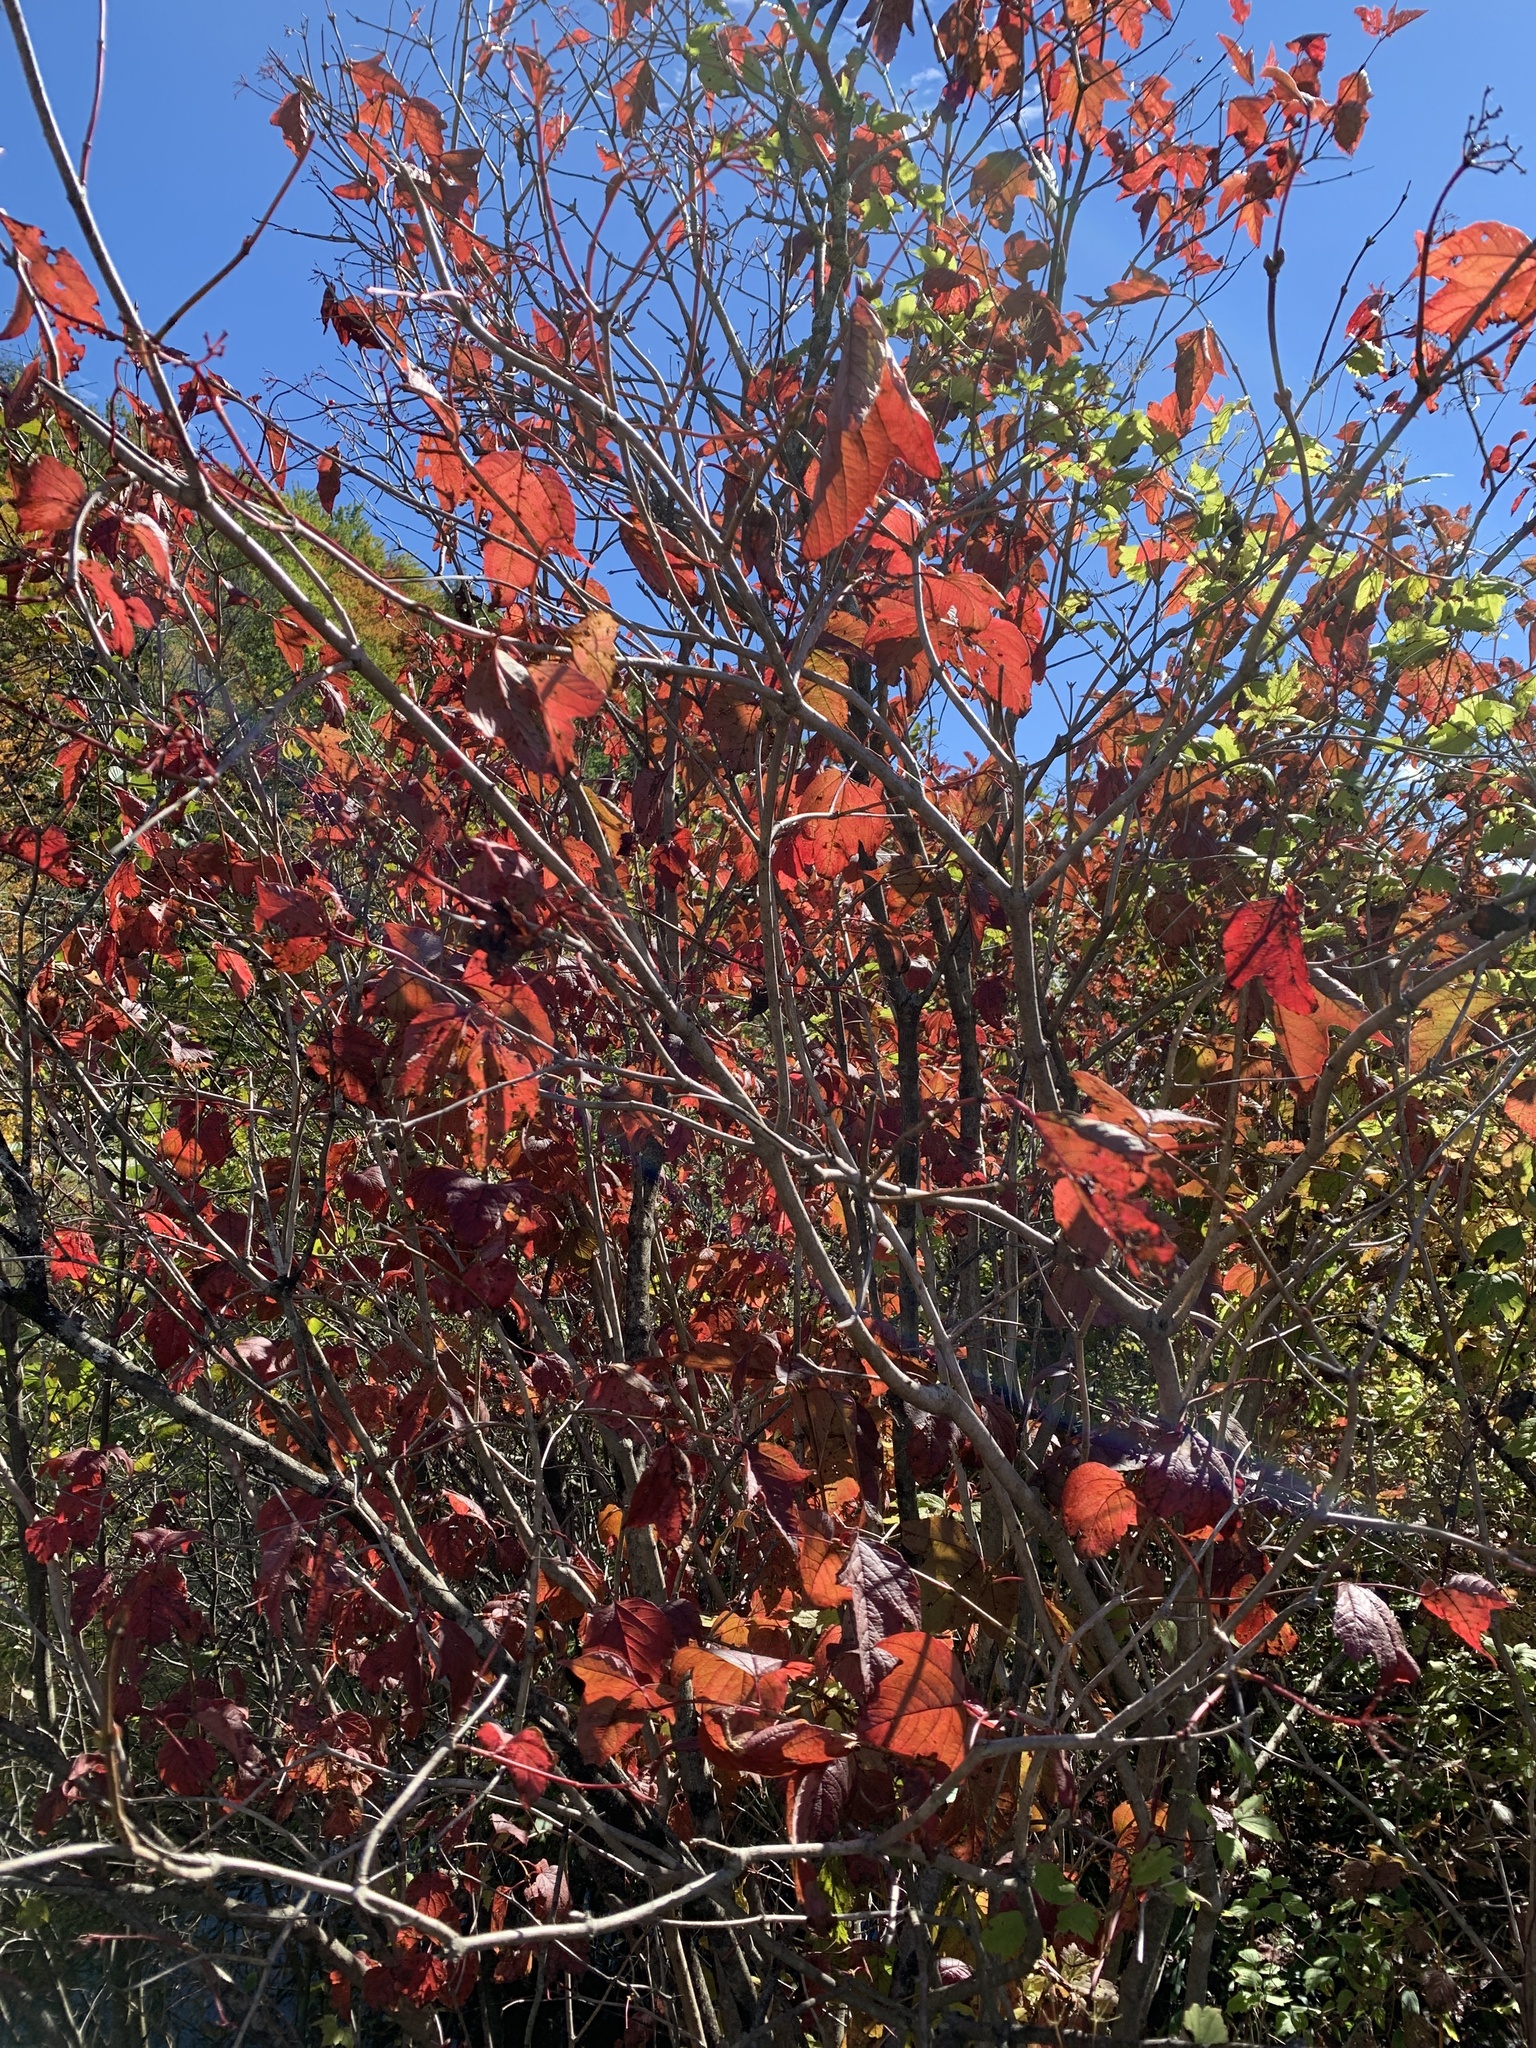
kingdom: Plantae
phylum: Tracheophyta
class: Magnoliopsida
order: Dipsacales
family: Viburnaceae
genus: Viburnum
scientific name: Viburnum opulus
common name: Guelder-rose
